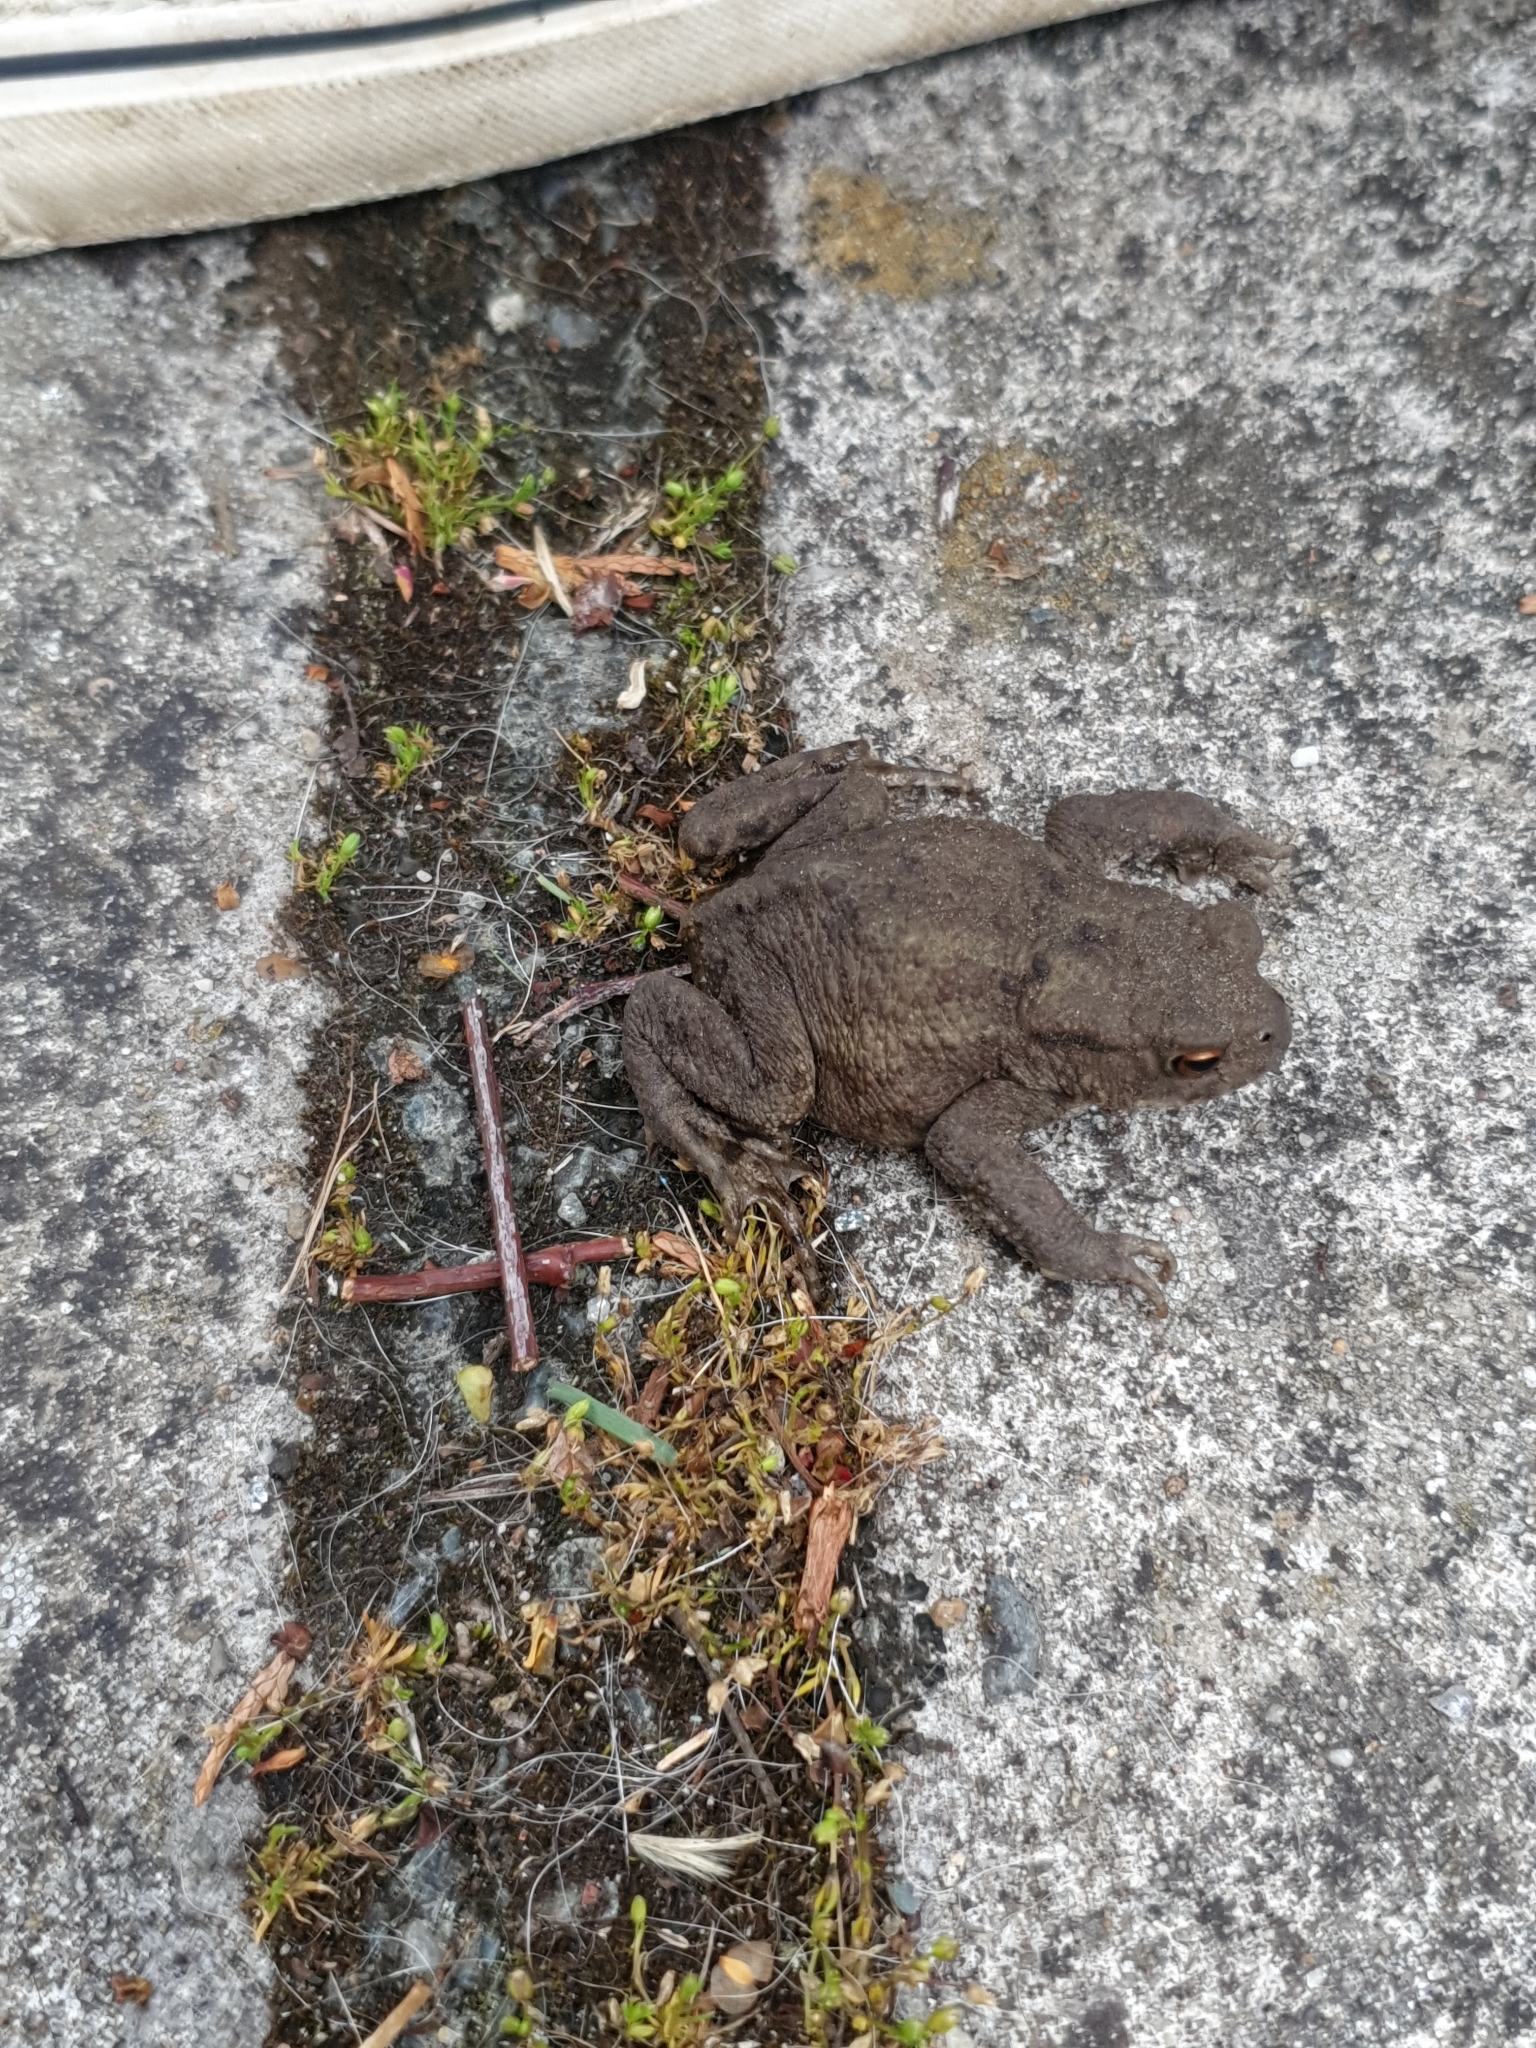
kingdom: Animalia
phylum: Chordata
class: Amphibia
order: Anura
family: Bufonidae
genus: Bufo
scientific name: Bufo bufo
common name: Common toad
